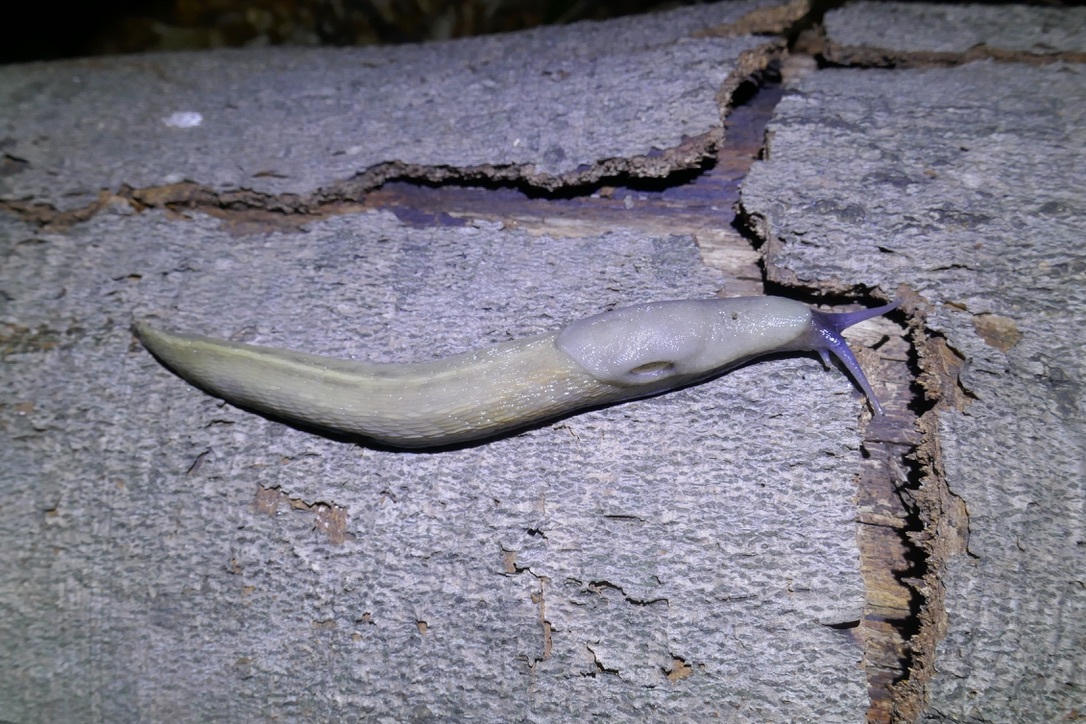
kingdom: Animalia
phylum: Mollusca
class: Gastropoda
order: Stylommatophora
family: Limacidae
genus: Limax
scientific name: Limax cinereoniger
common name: Ash-black slug
